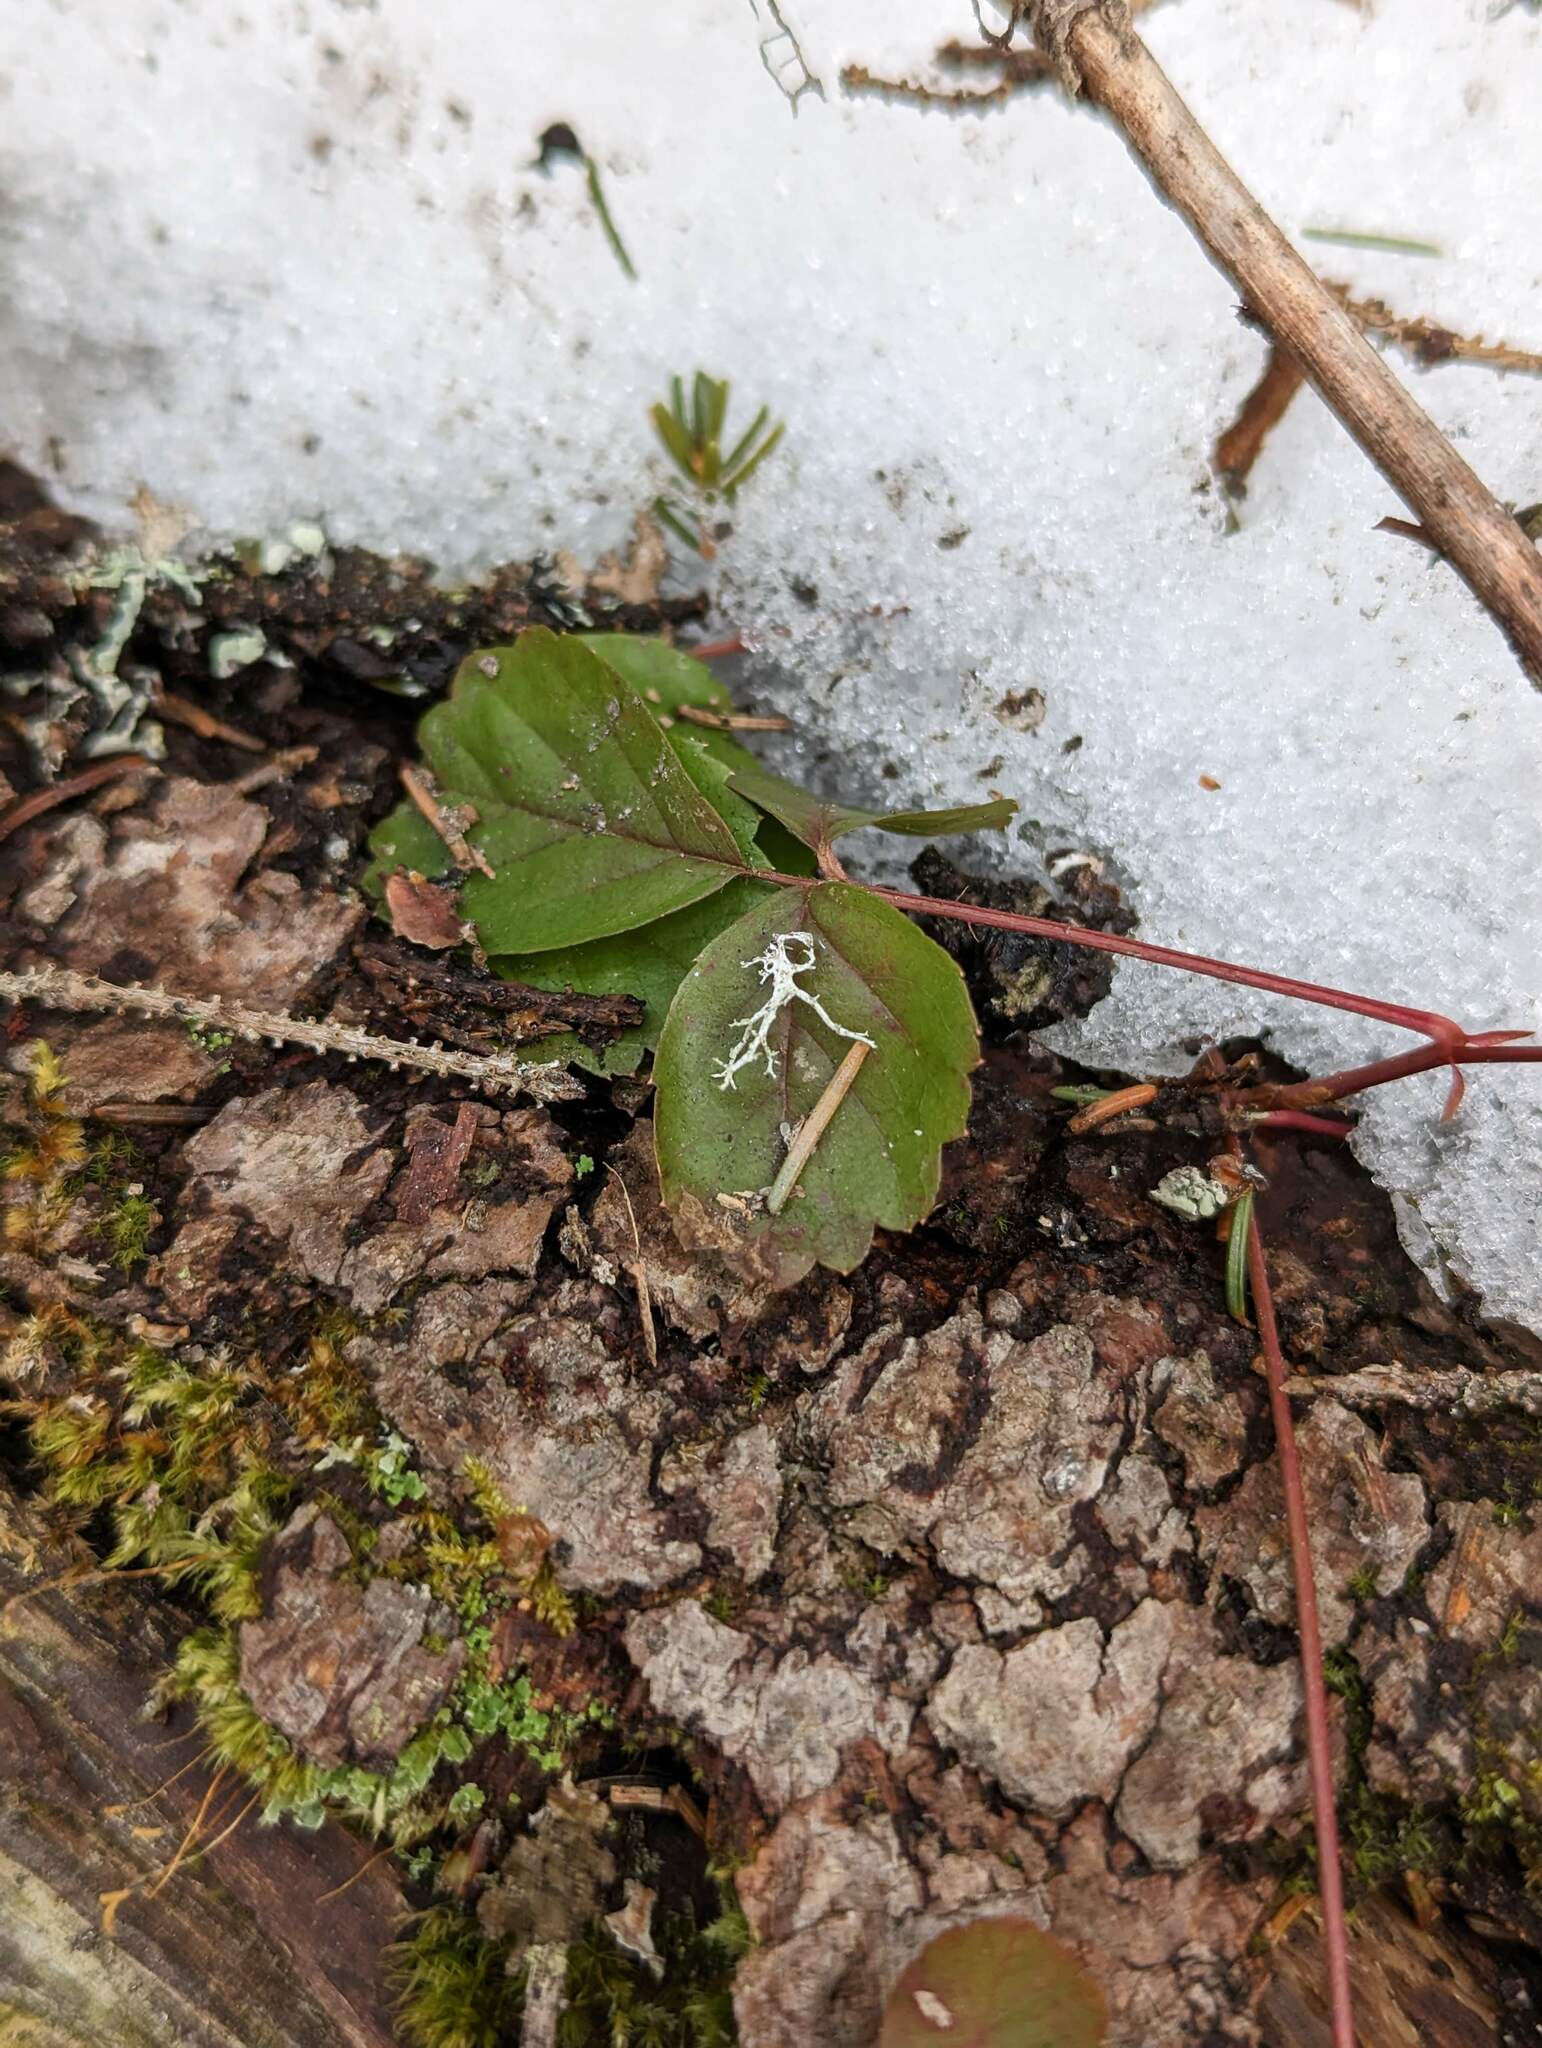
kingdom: Plantae
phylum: Tracheophyta
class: Magnoliopsida
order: Rosales
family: Rosaceae
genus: Rubus
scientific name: Rubus hispidus
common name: Running blackberry
